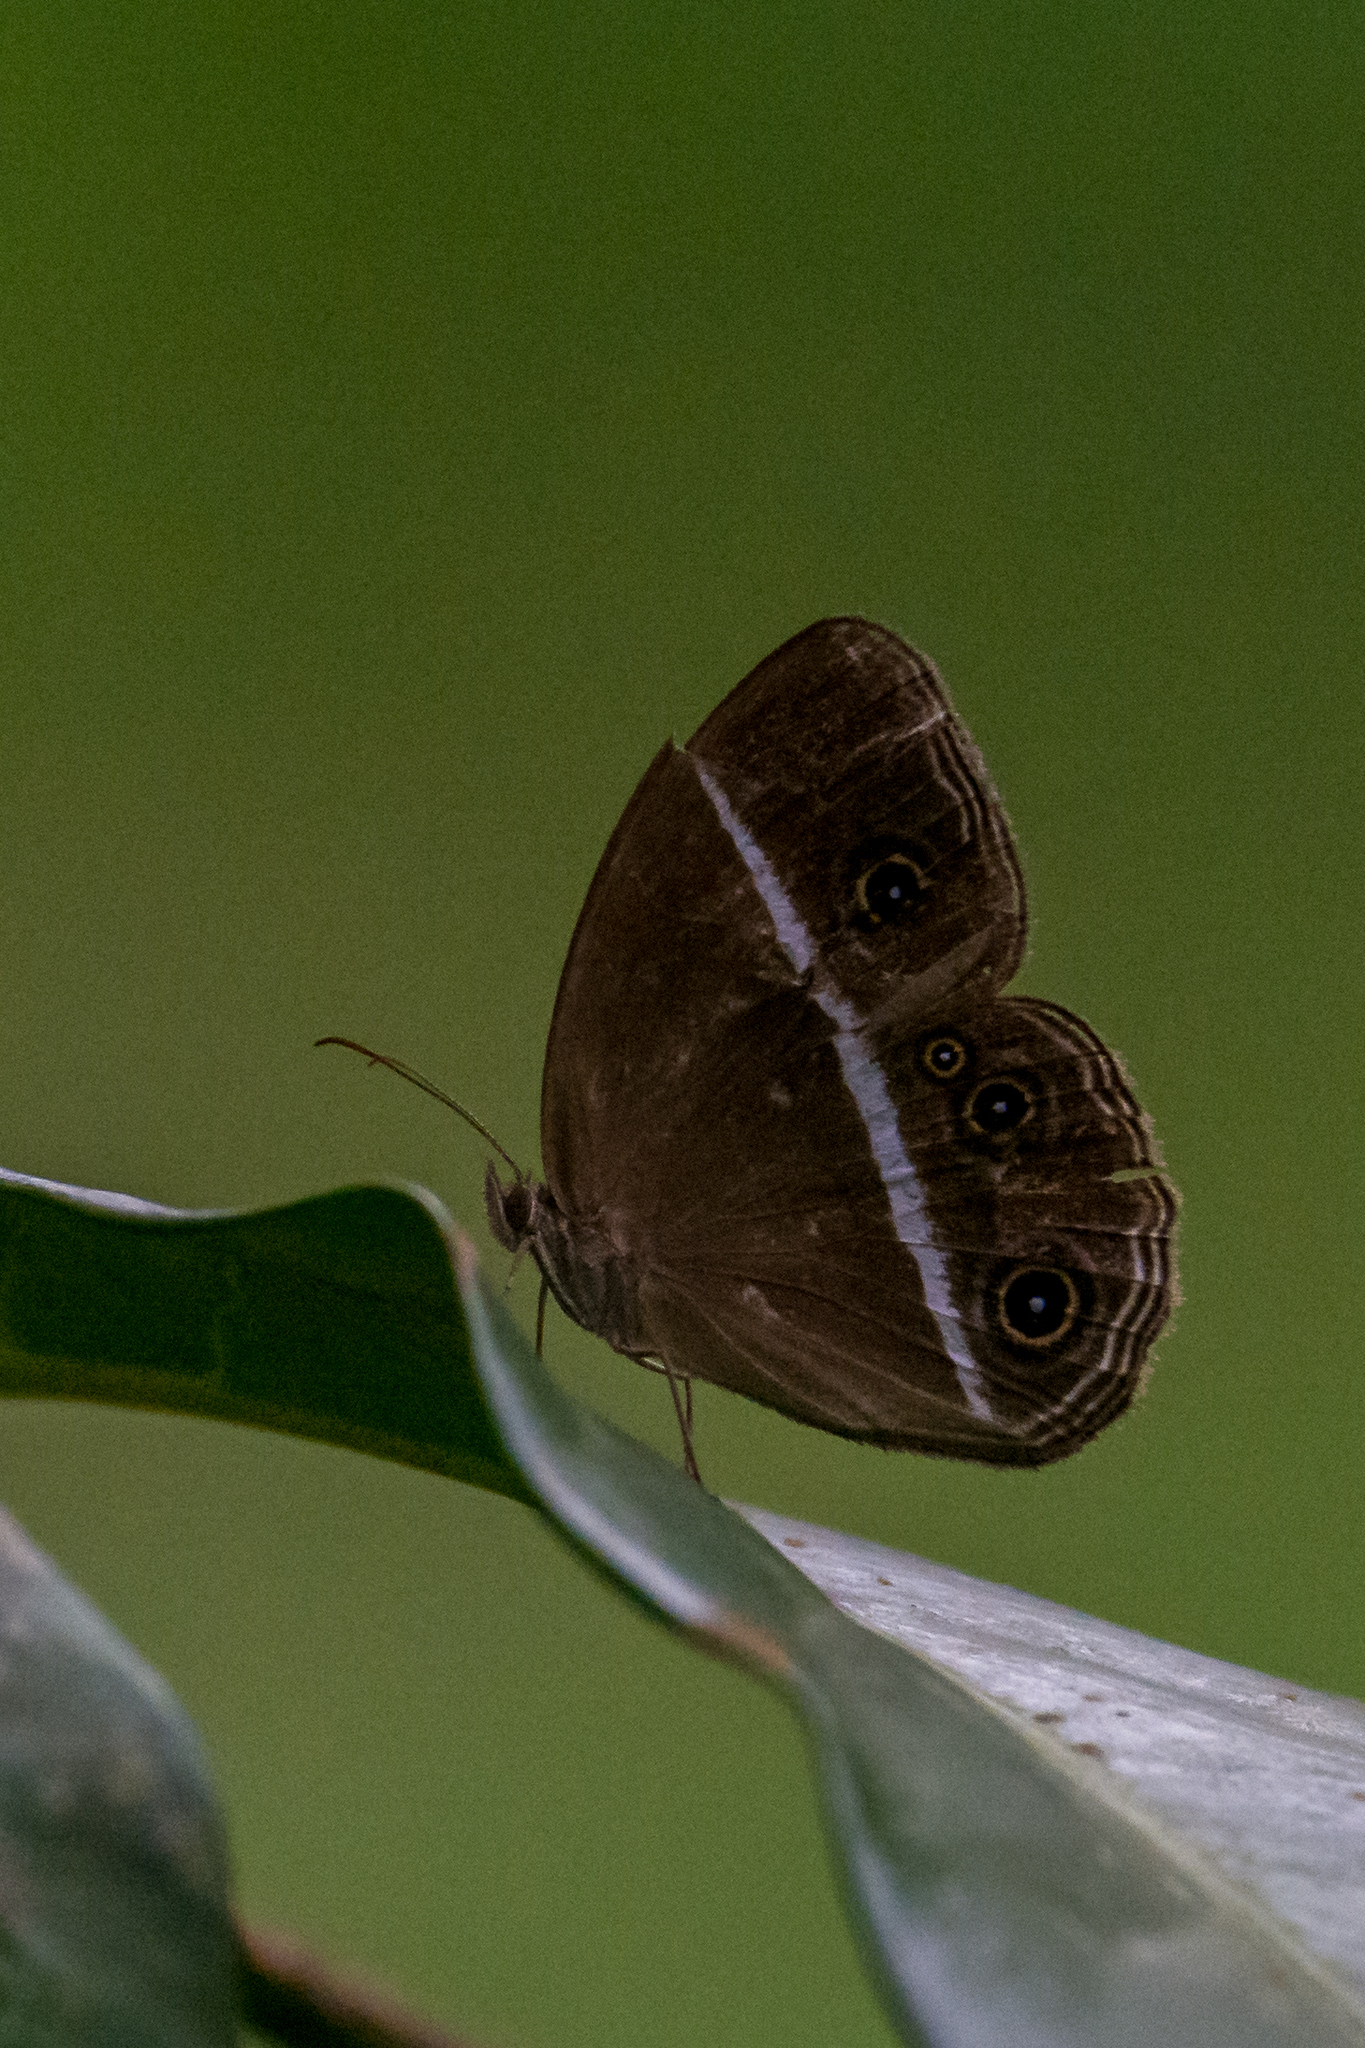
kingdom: Animalia
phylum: Arthropoda
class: Insecta
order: Lepidoptera
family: Nymphalidae
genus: Orsotriaena
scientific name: Orsotriaena medus
